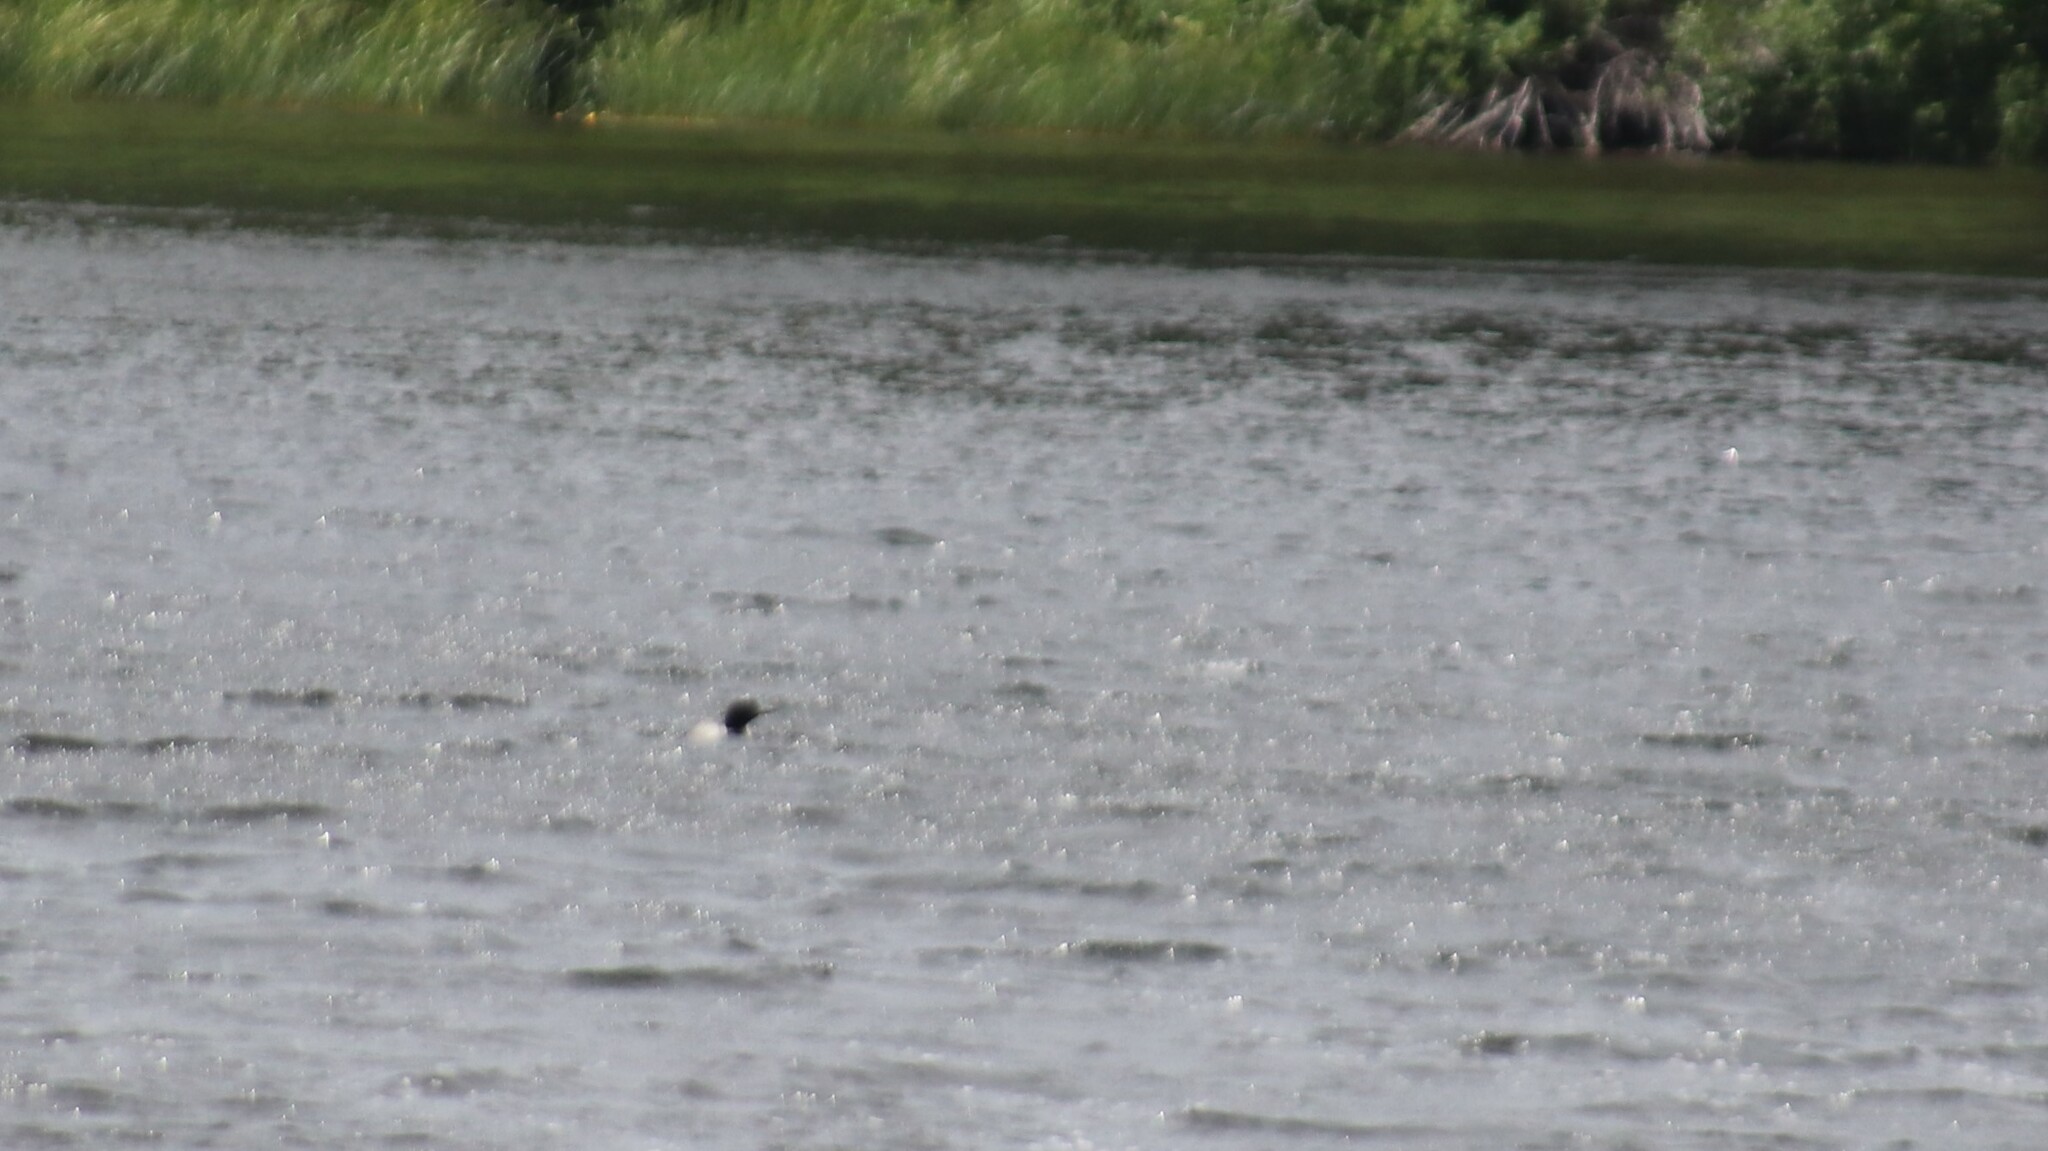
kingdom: Animalia
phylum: Chordata
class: Aves
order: Gaviiformes
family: Gaviidae
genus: Gavia
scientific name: Gavia immer
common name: Common loon
